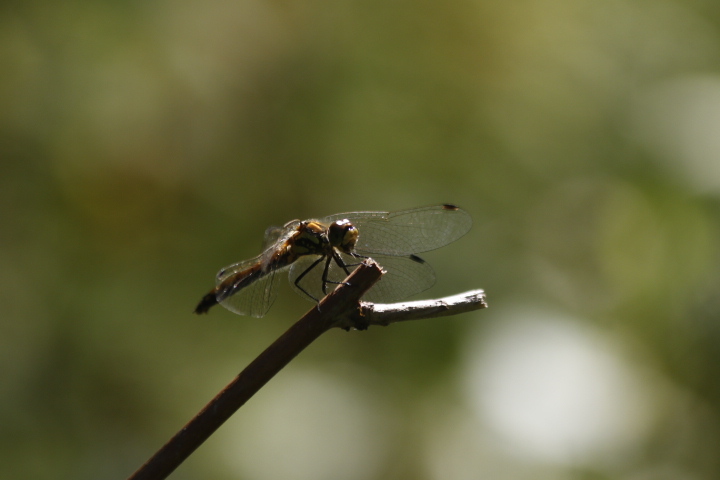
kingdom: Animalia
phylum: Arthropoda
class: Insecta
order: Odonata
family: Libellulidae
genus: Sympetrum
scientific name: Sympetrum danae
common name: Black darter
